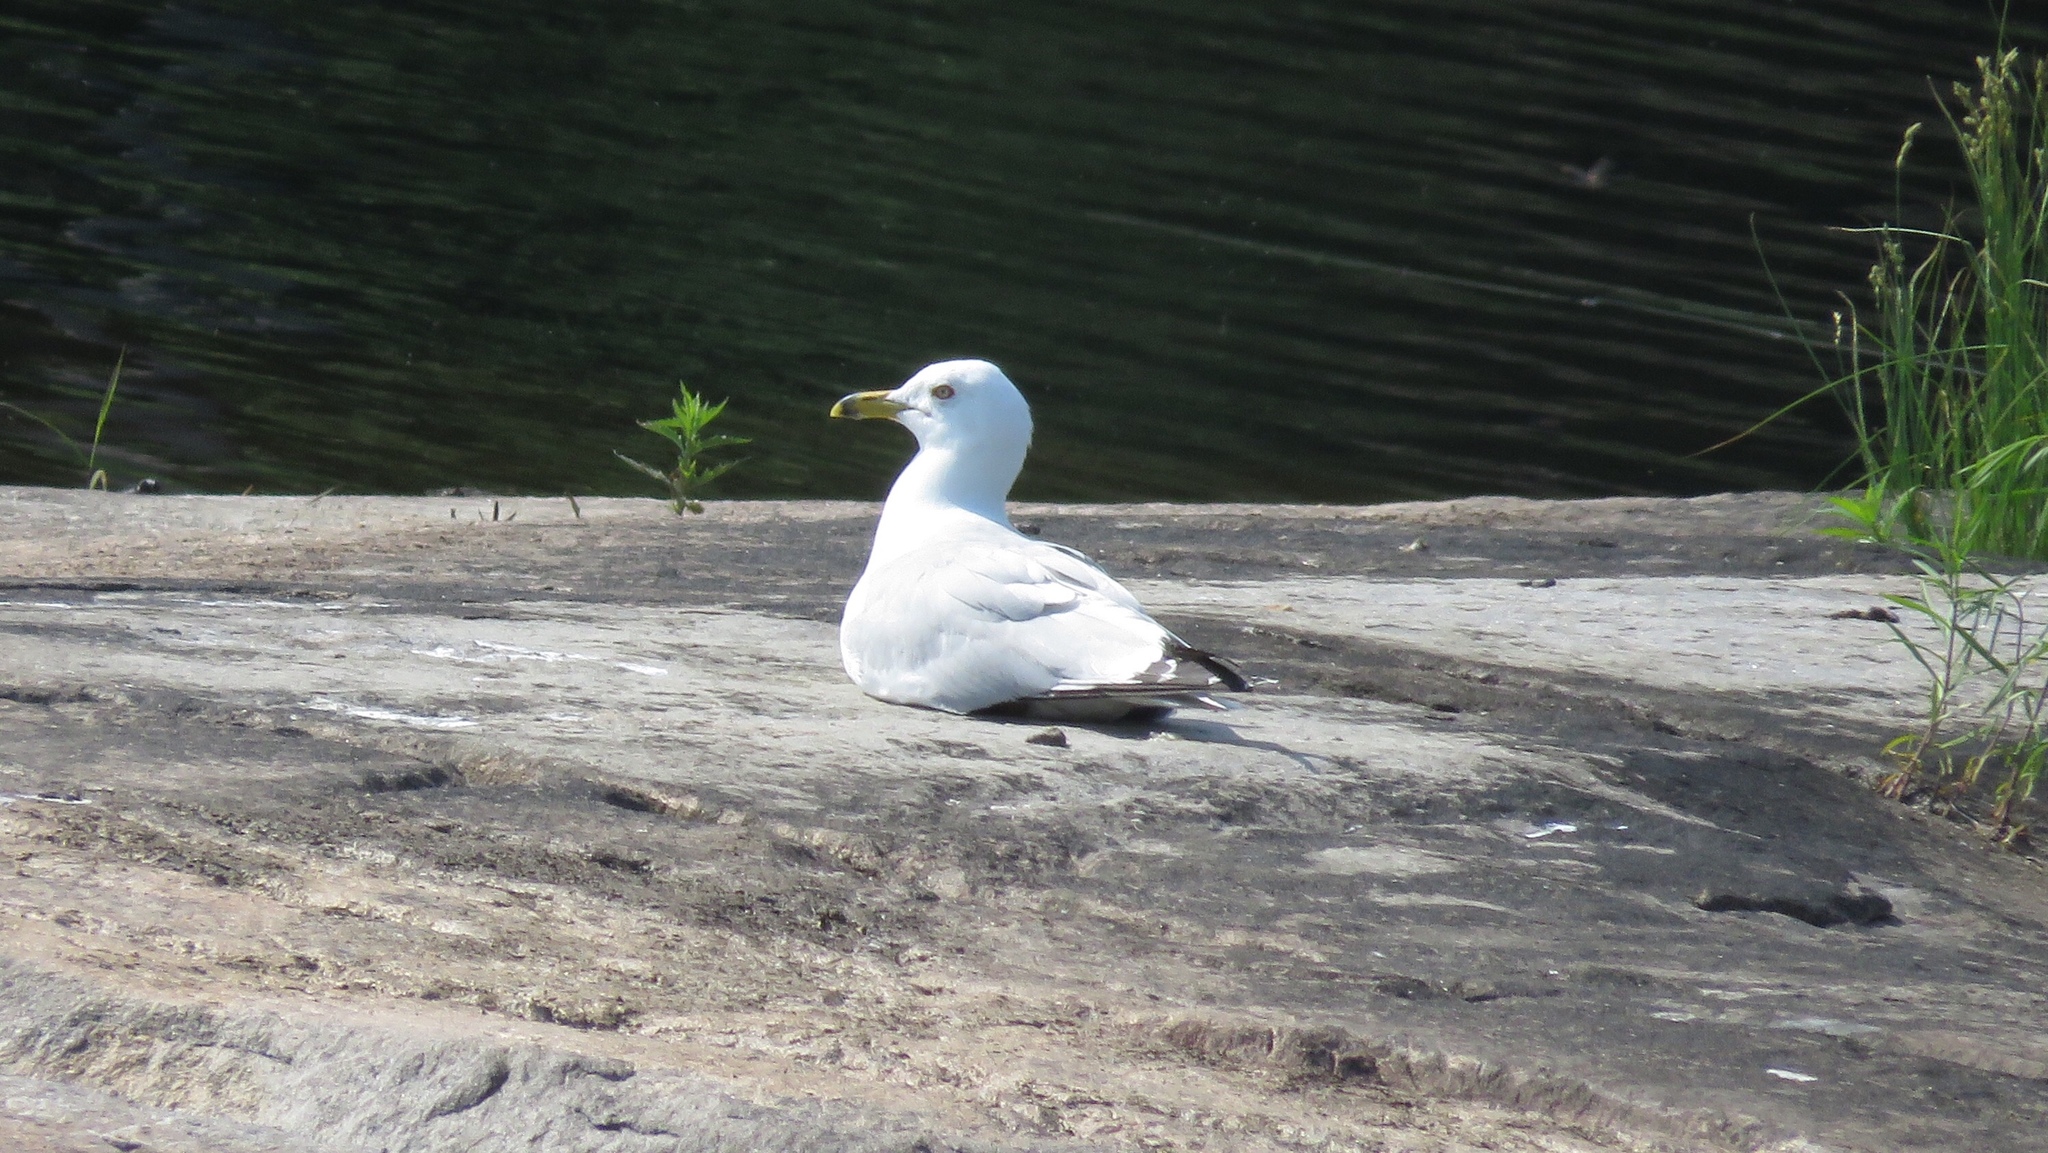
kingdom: Animalia
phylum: Chordata
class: Aves
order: Charadriiformes
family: Laridae
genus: Larus
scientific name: Larus delawarensis
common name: Ring-billed gull
